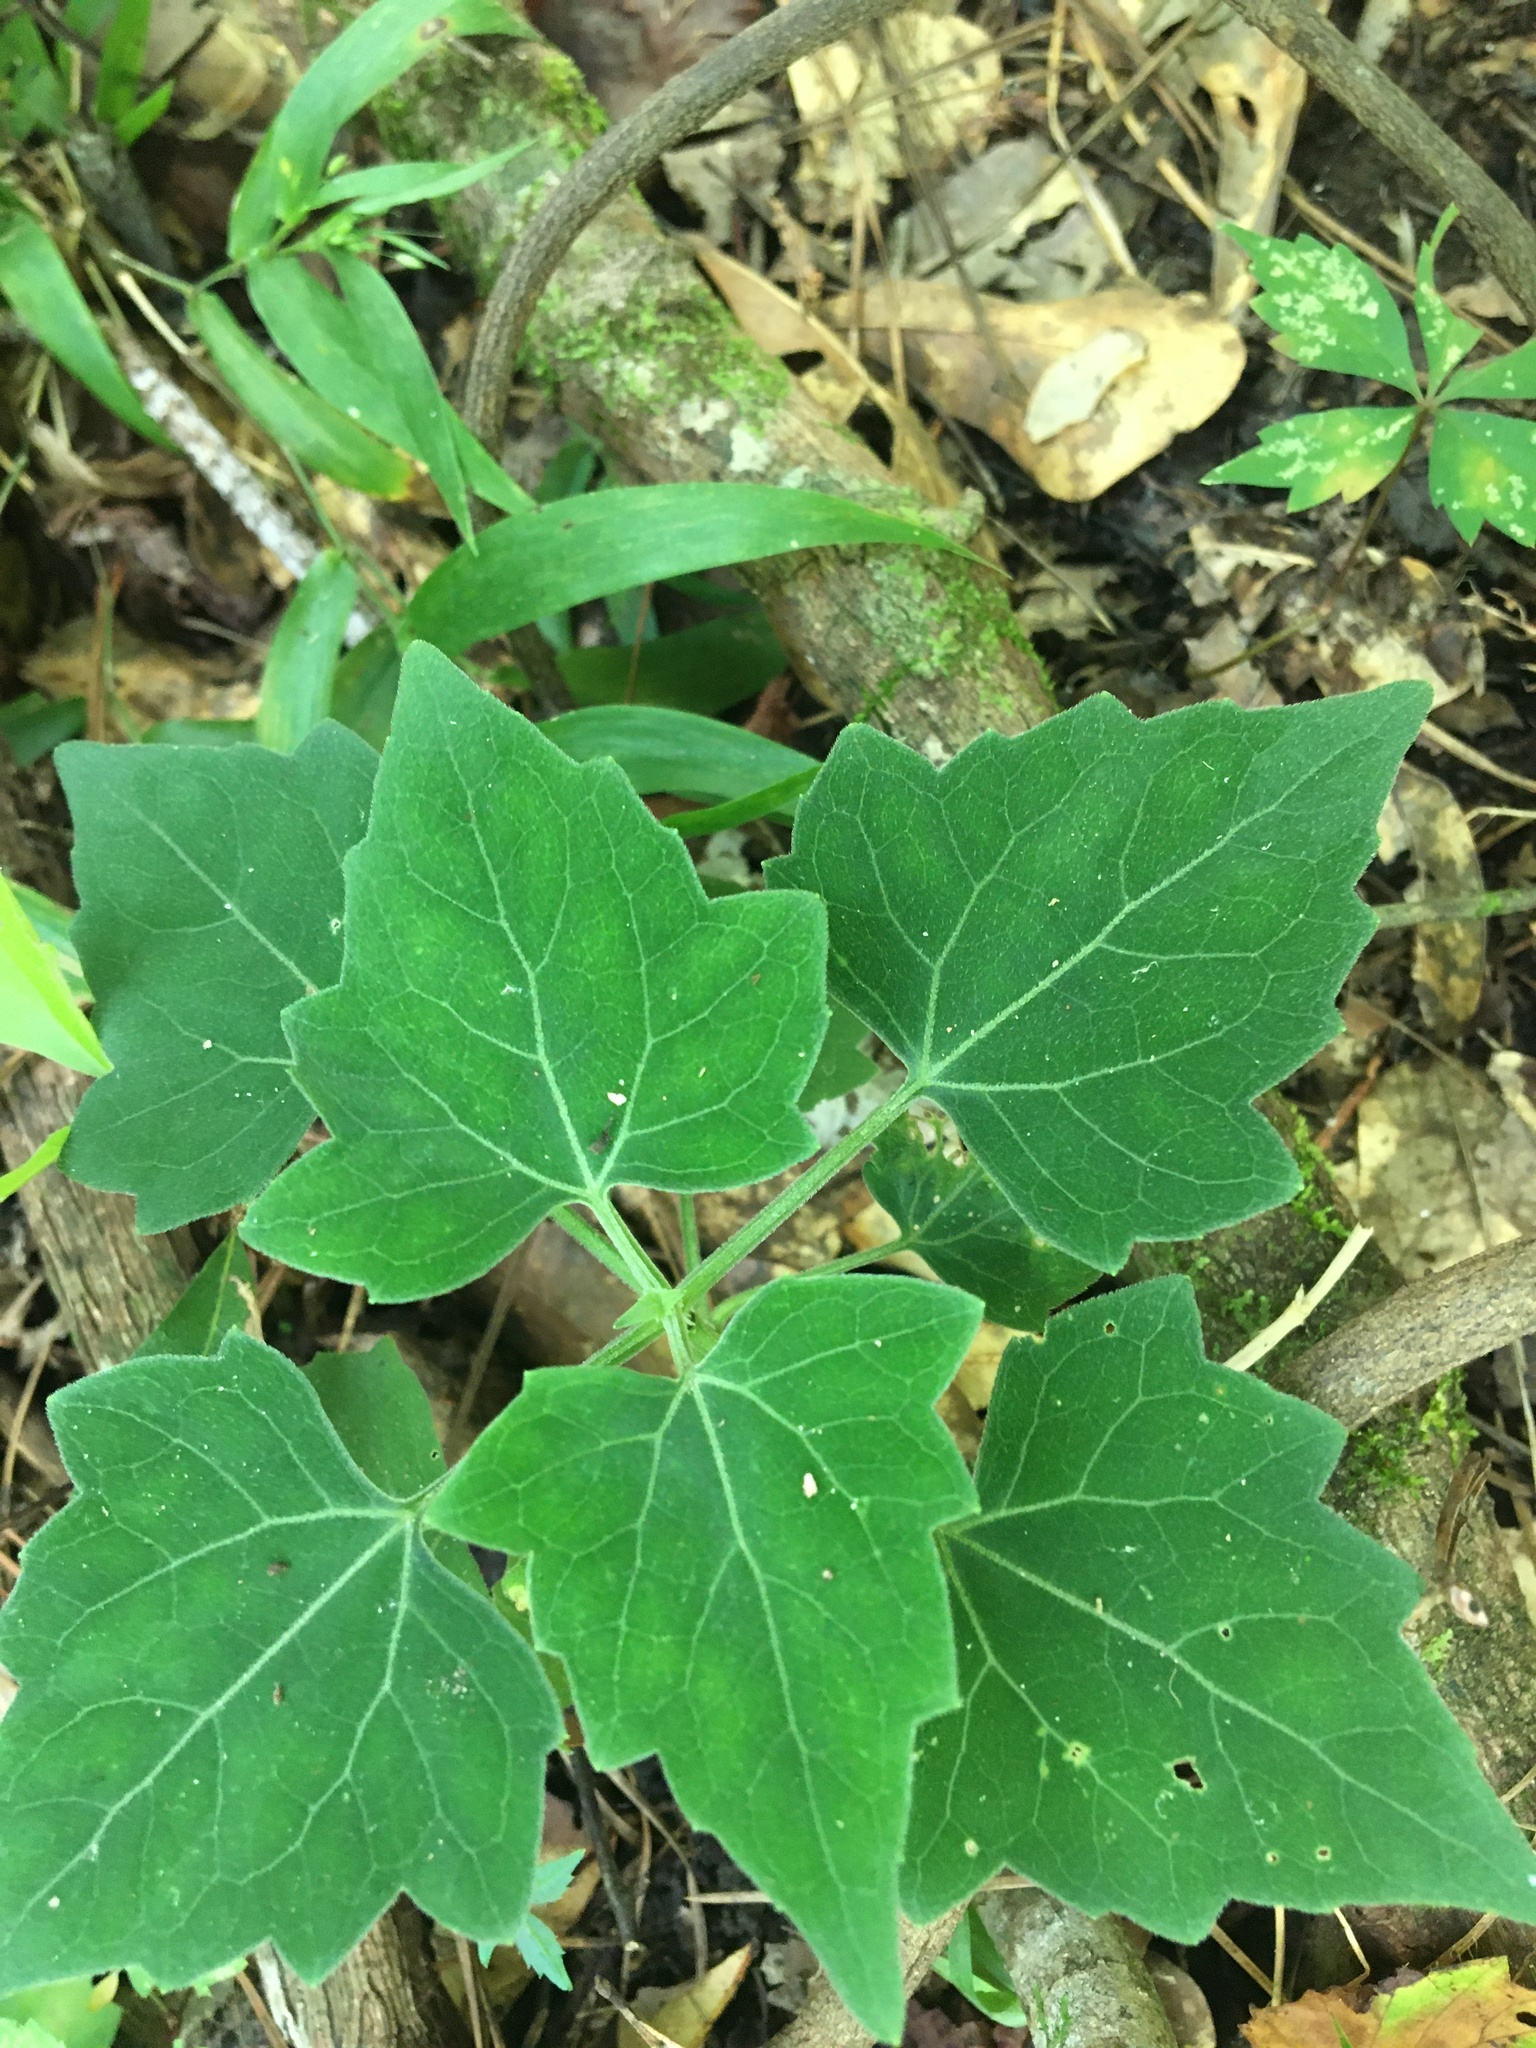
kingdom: Plantae
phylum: Tracheophyta
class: Magnoliopsida
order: Asterales
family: Asteraceae
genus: Mikania
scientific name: Mikania cordifolia
